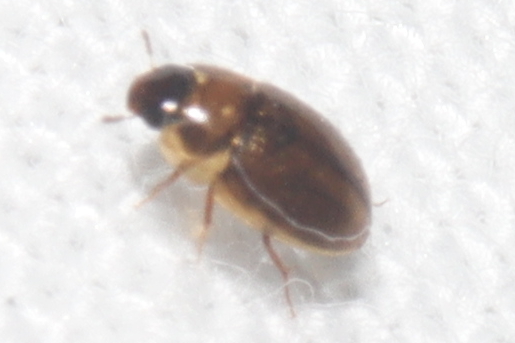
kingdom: Animalia
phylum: Arthropoda
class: Insecta
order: Coleoptera
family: Hydrophilidae
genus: Enochrus
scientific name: Enochrus
